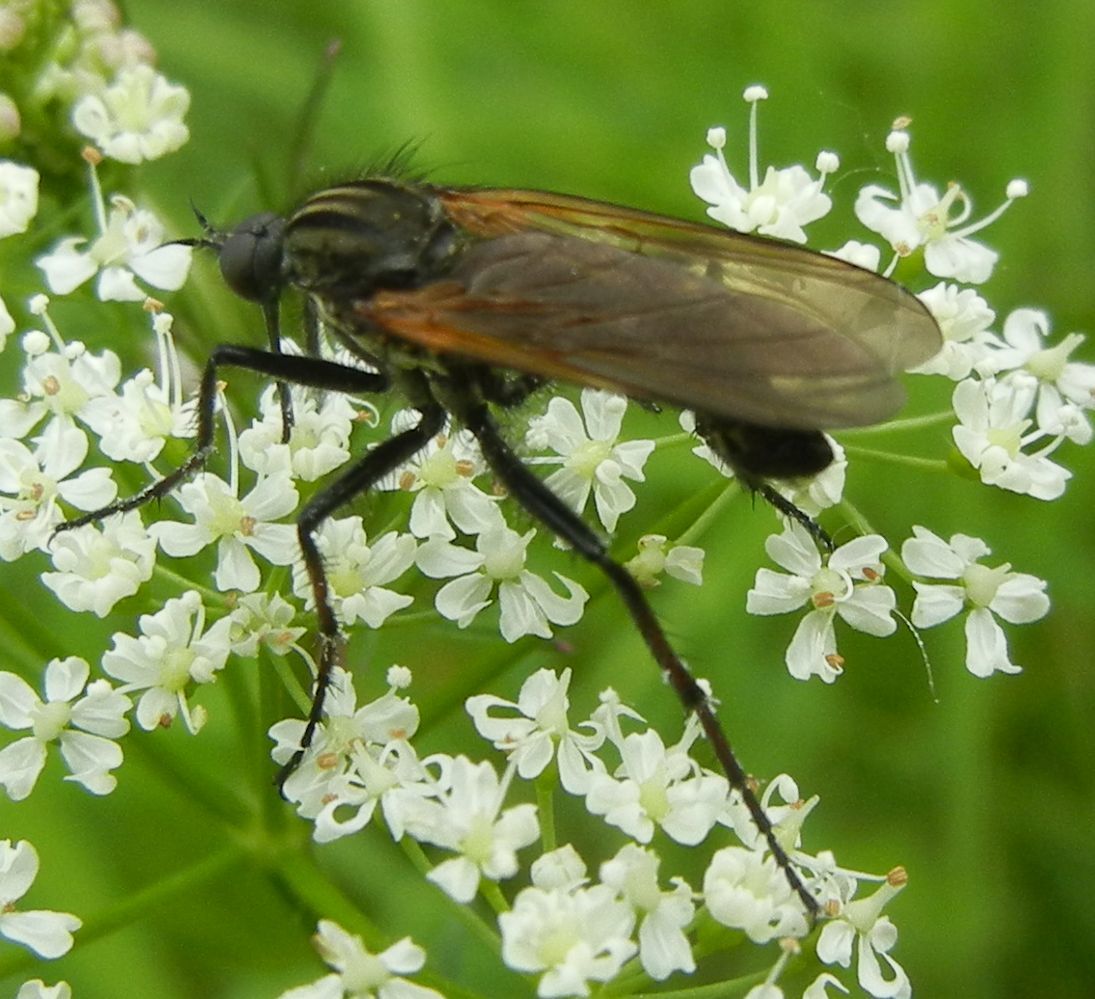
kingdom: Animalia
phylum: Arthropoda
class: Insecta
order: Diptera
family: Empididae
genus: Empis
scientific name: Empis tessellata
